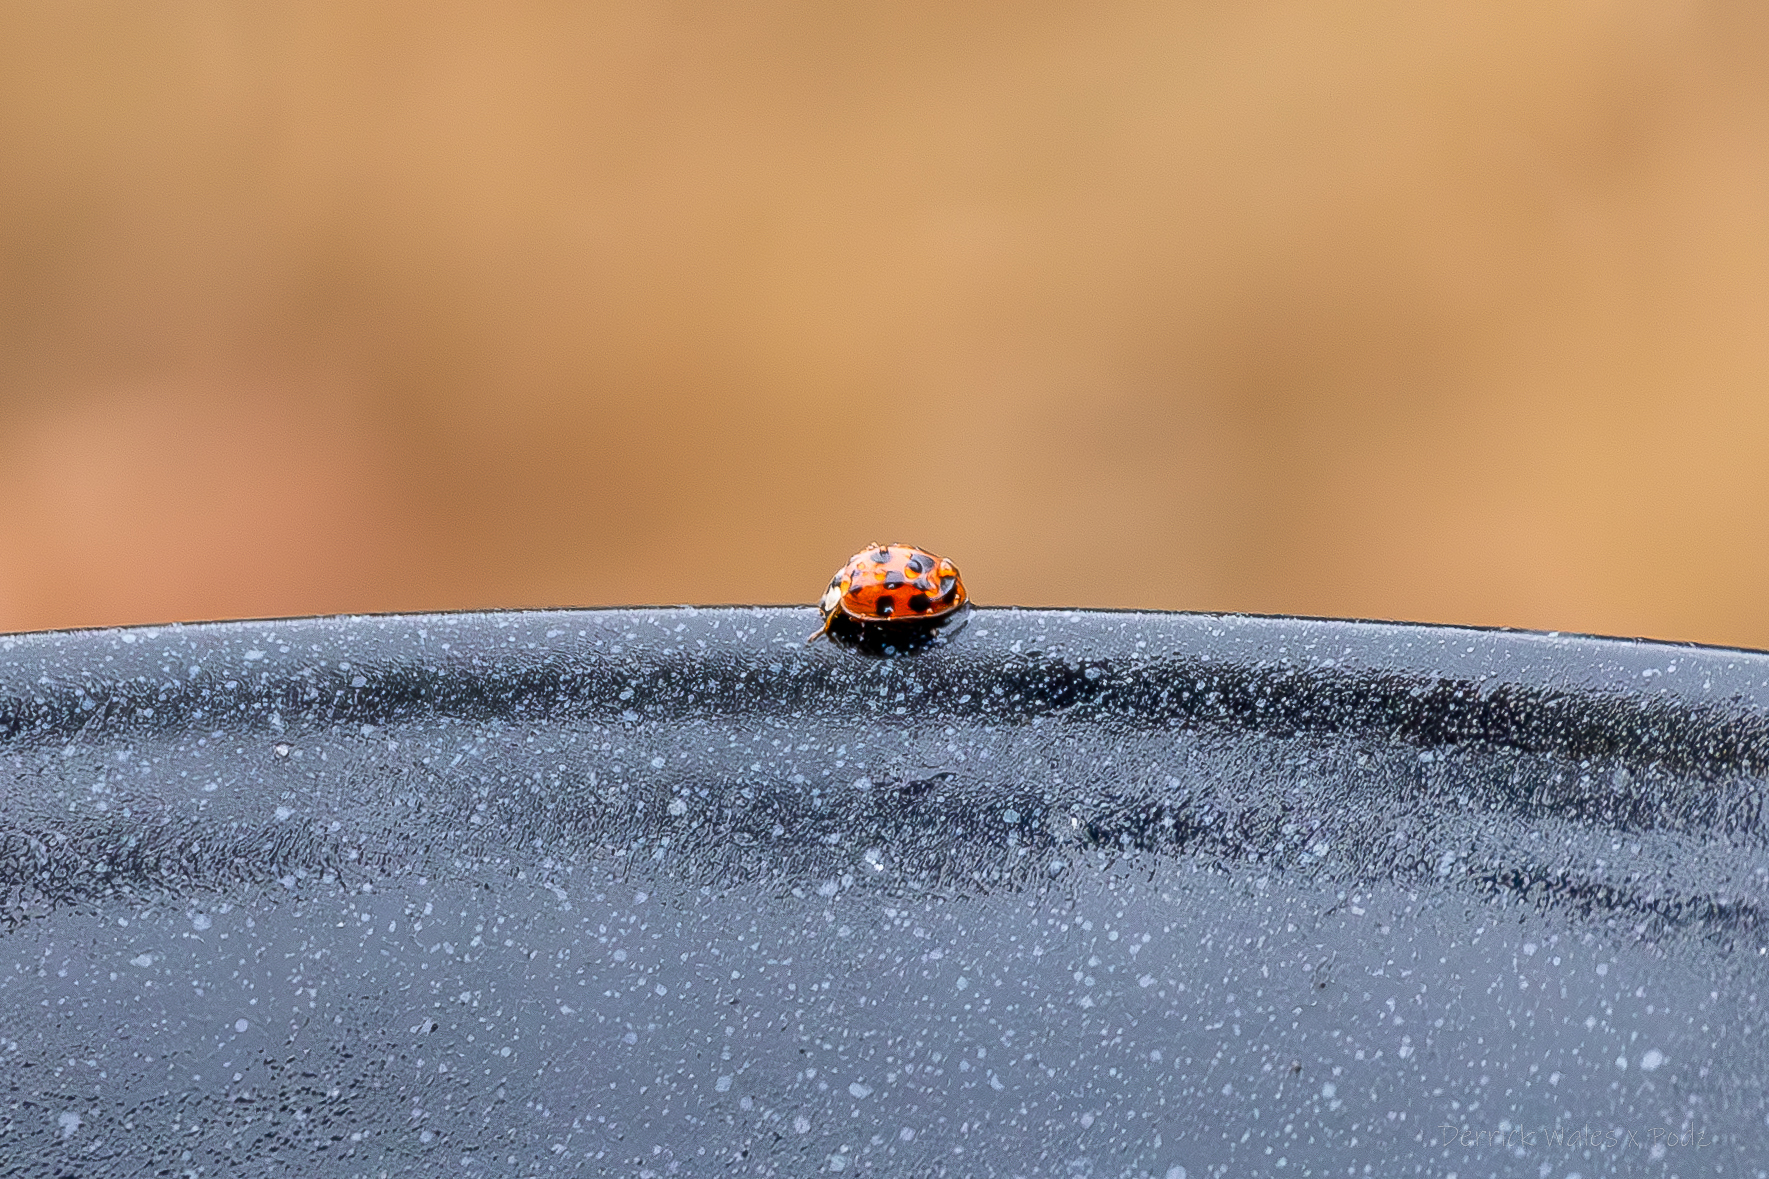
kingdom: Animalia
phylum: Arthropoda
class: Insecta
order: Coleoptera
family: Coccinellidae
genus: Harmonia
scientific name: Harmonia axyridis
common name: Harlequin ladybird
